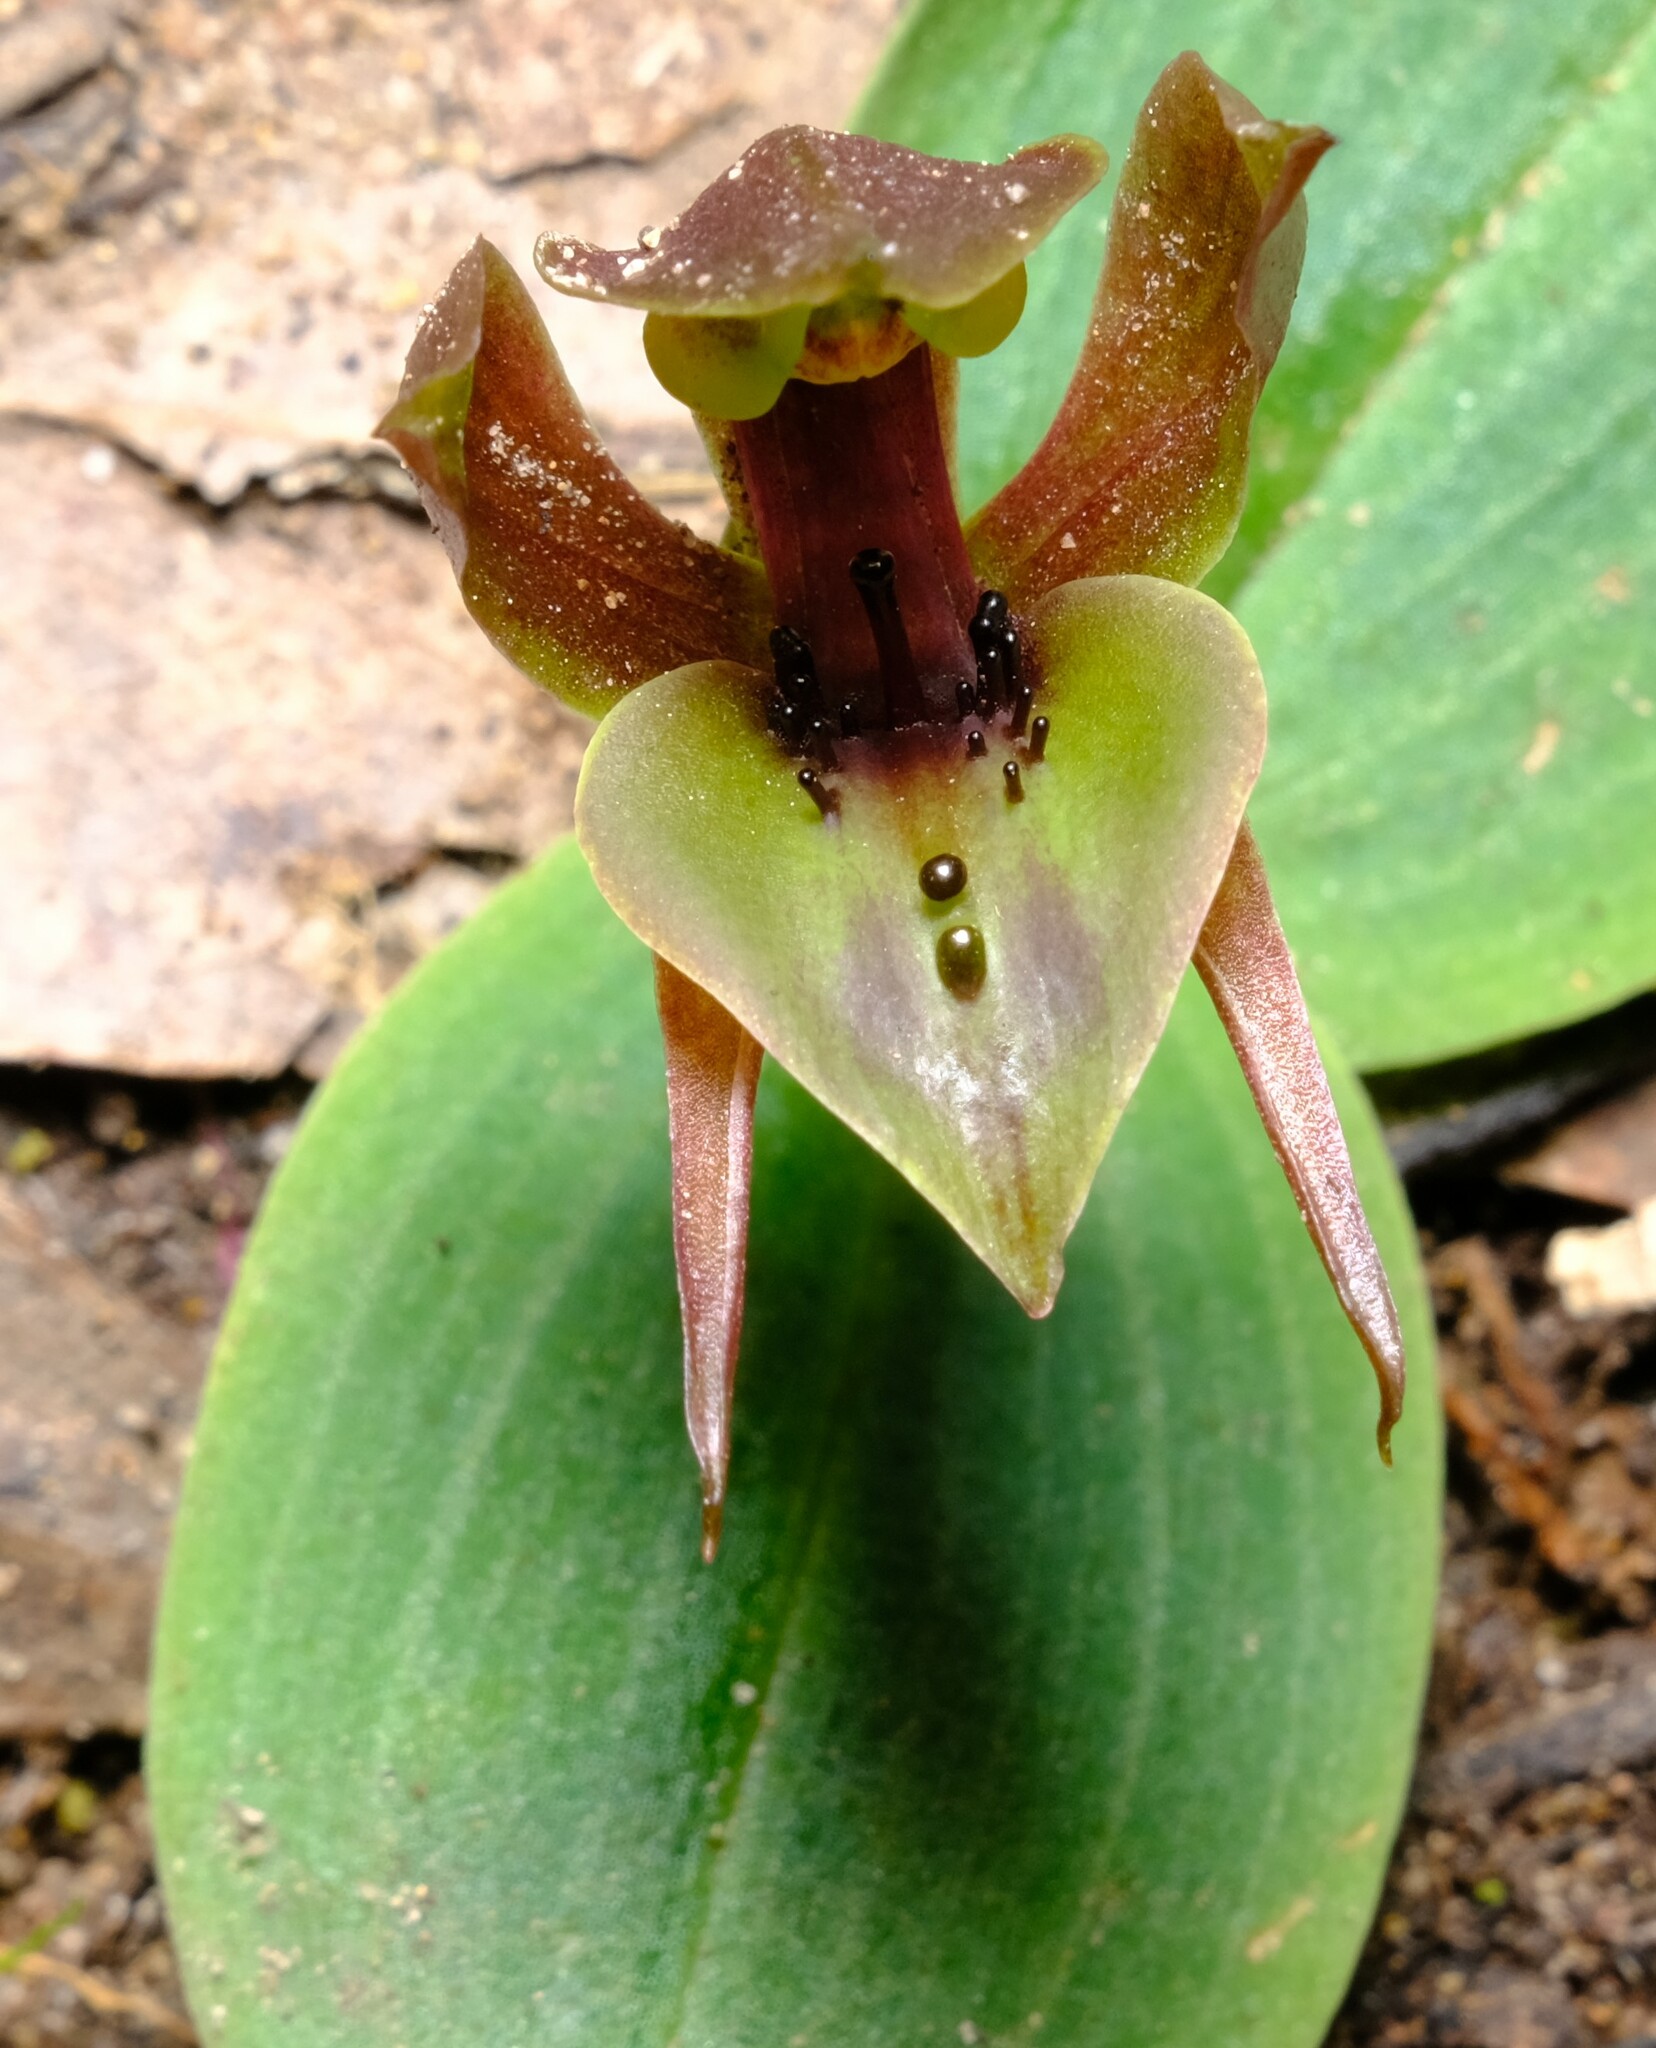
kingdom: Plantae
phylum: Tracheophyta
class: Liliopsida
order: Asparagales
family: Orchidaceae
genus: Chiloglottis
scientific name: Chiloglottis valida
